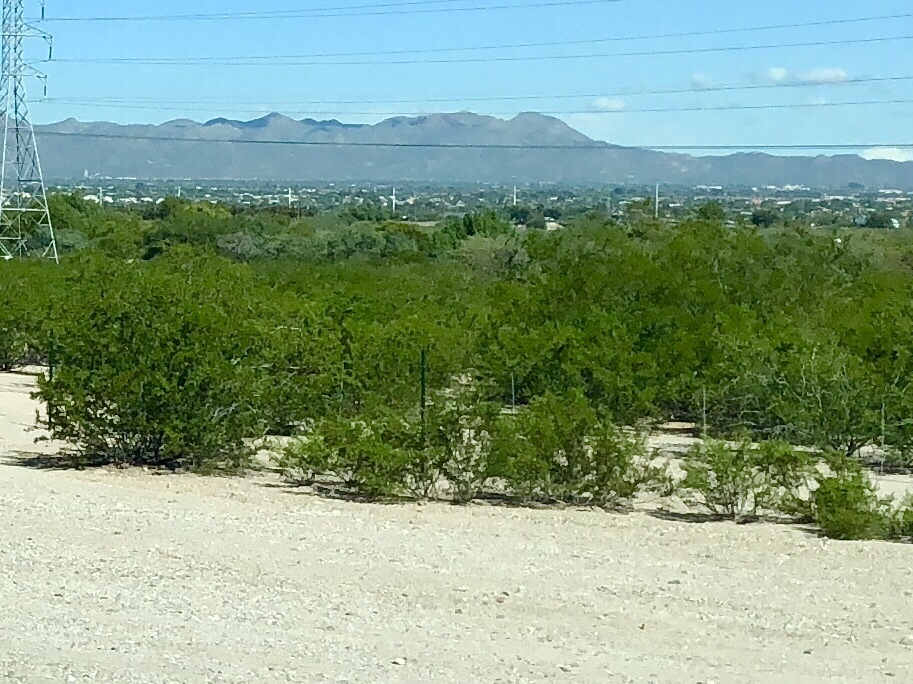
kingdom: Plantae
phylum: Tracheophyta
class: Magnoliopsida
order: Zygophyllales
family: Zygophyllaceae
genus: Larrea
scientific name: Larrea tridentata
